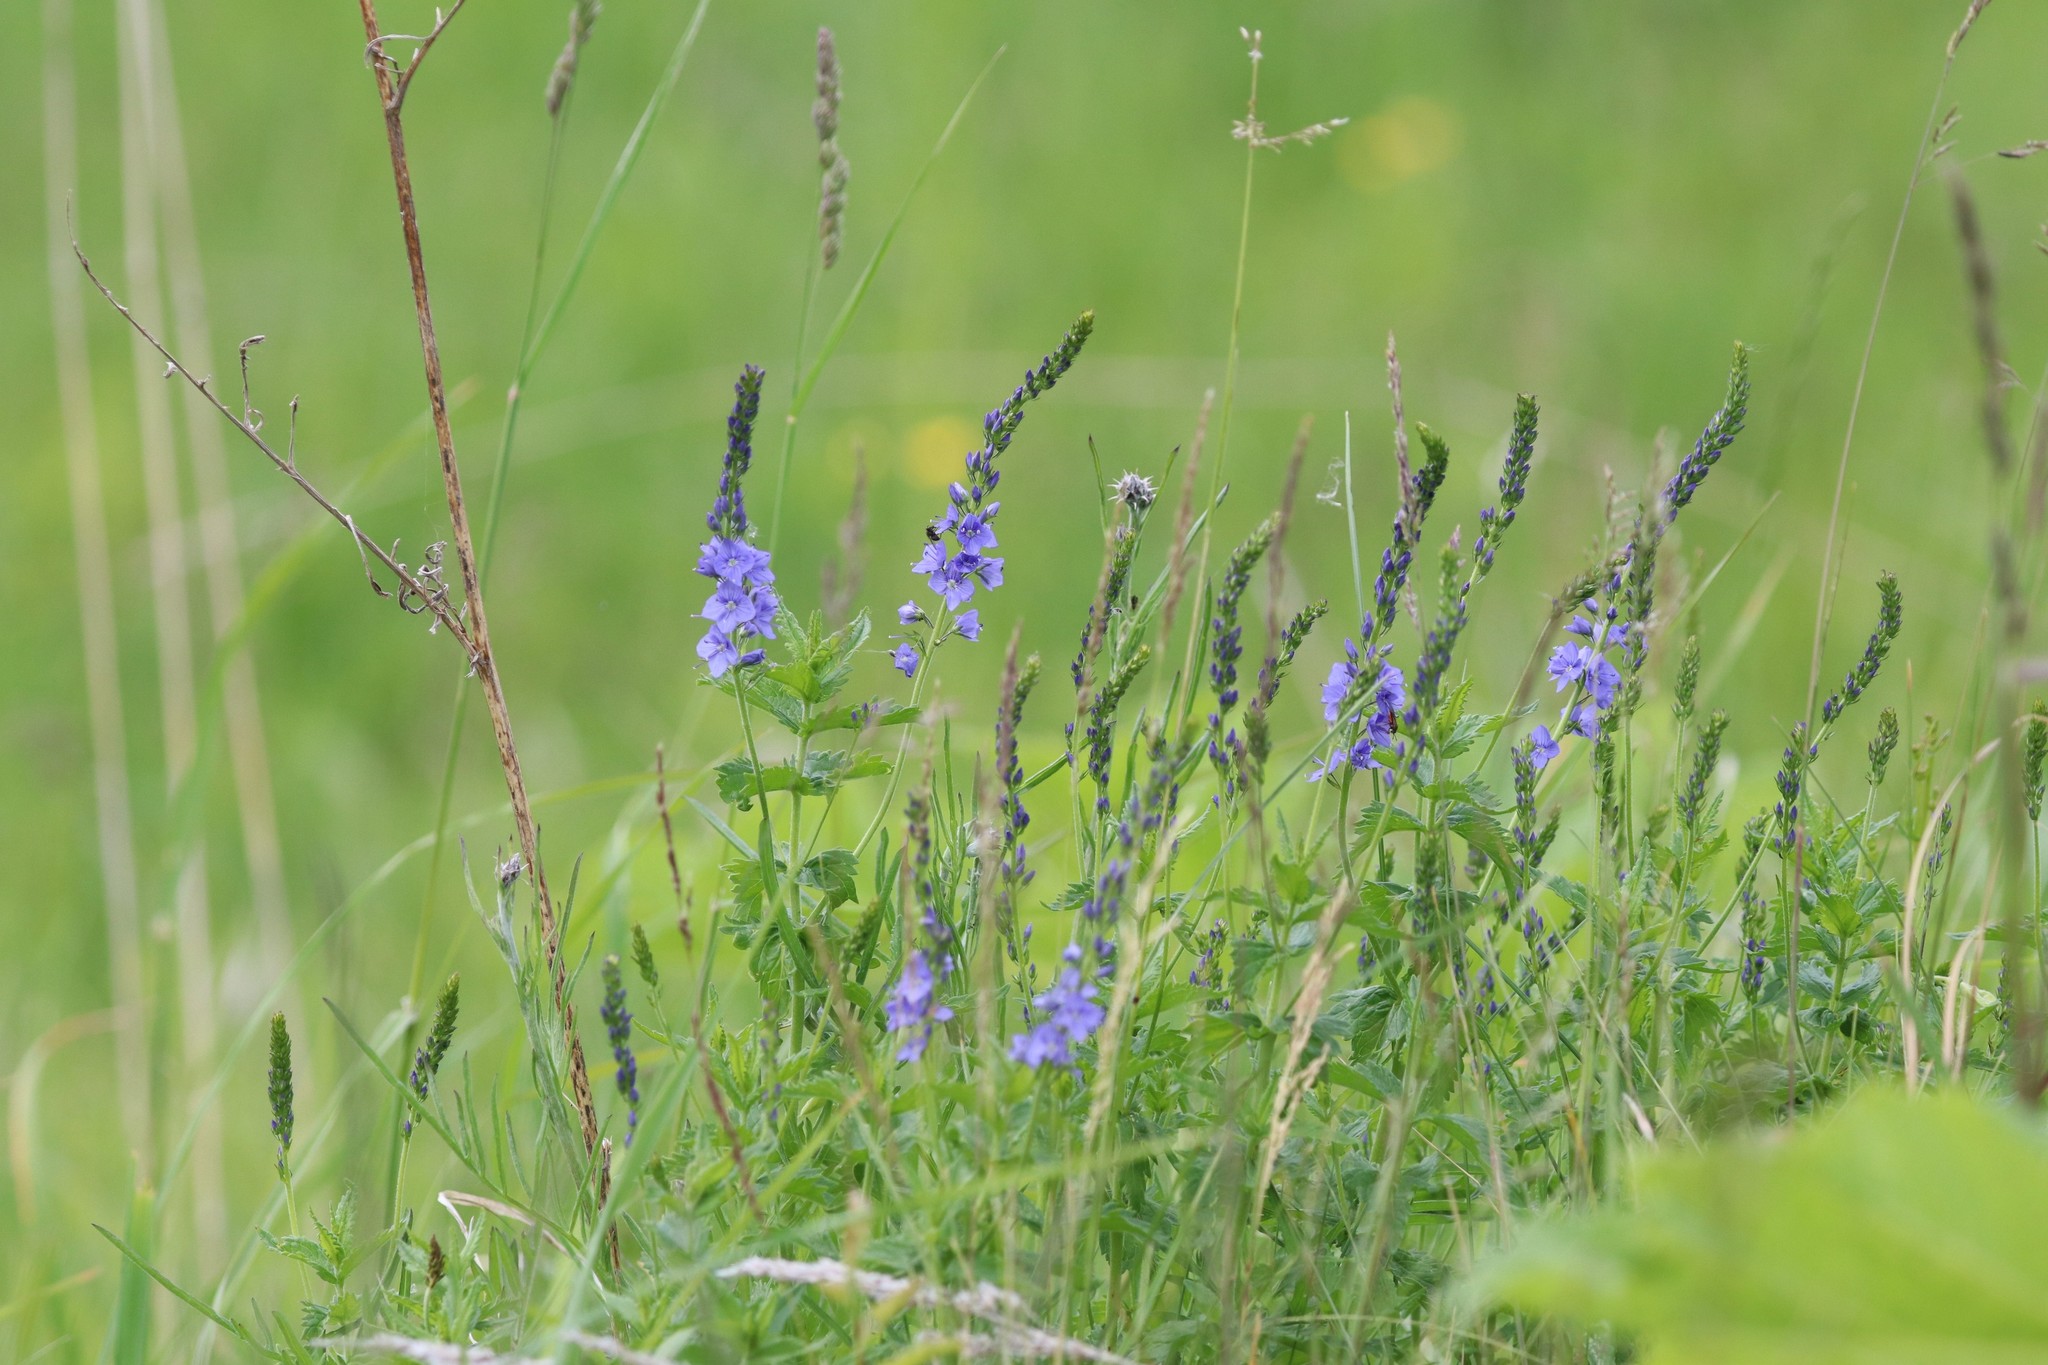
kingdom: Plantae
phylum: Tracheophyta
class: Magnoliopsida
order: Lamiales
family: Plantaginaceae
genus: Veronica
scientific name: Veronica teucrium
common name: Large speedwell
